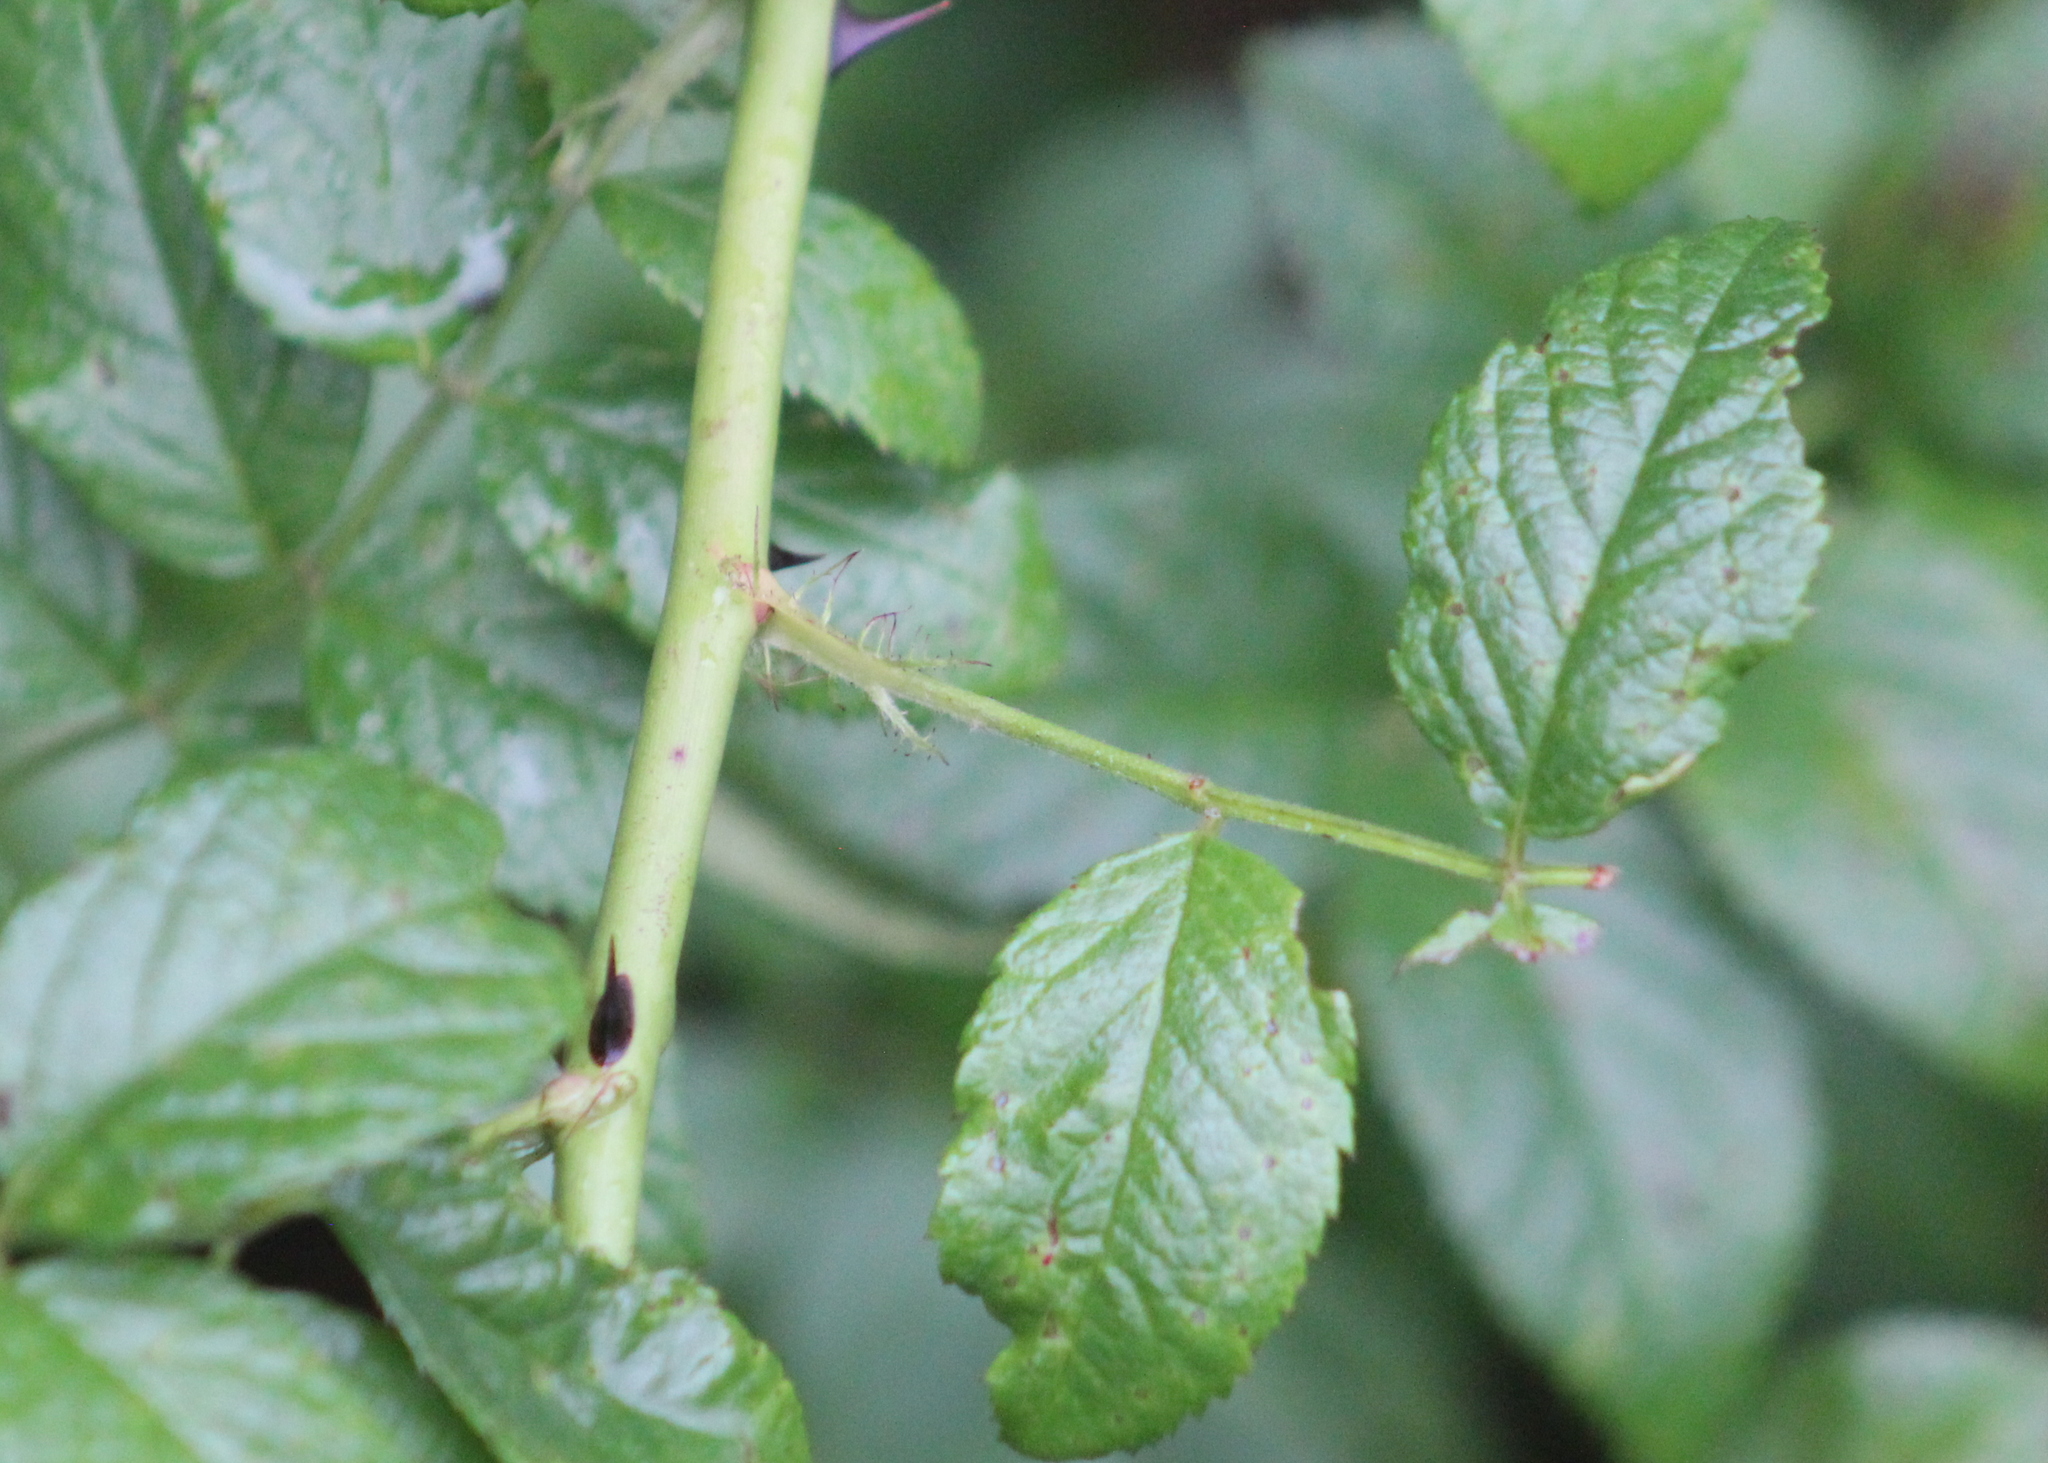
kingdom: Plantae
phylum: Tracheophyta
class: Magnoliopsida
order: Rosales
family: Rosaceae
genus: Rosa
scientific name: Rosa multiflora
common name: Multiflora rose
